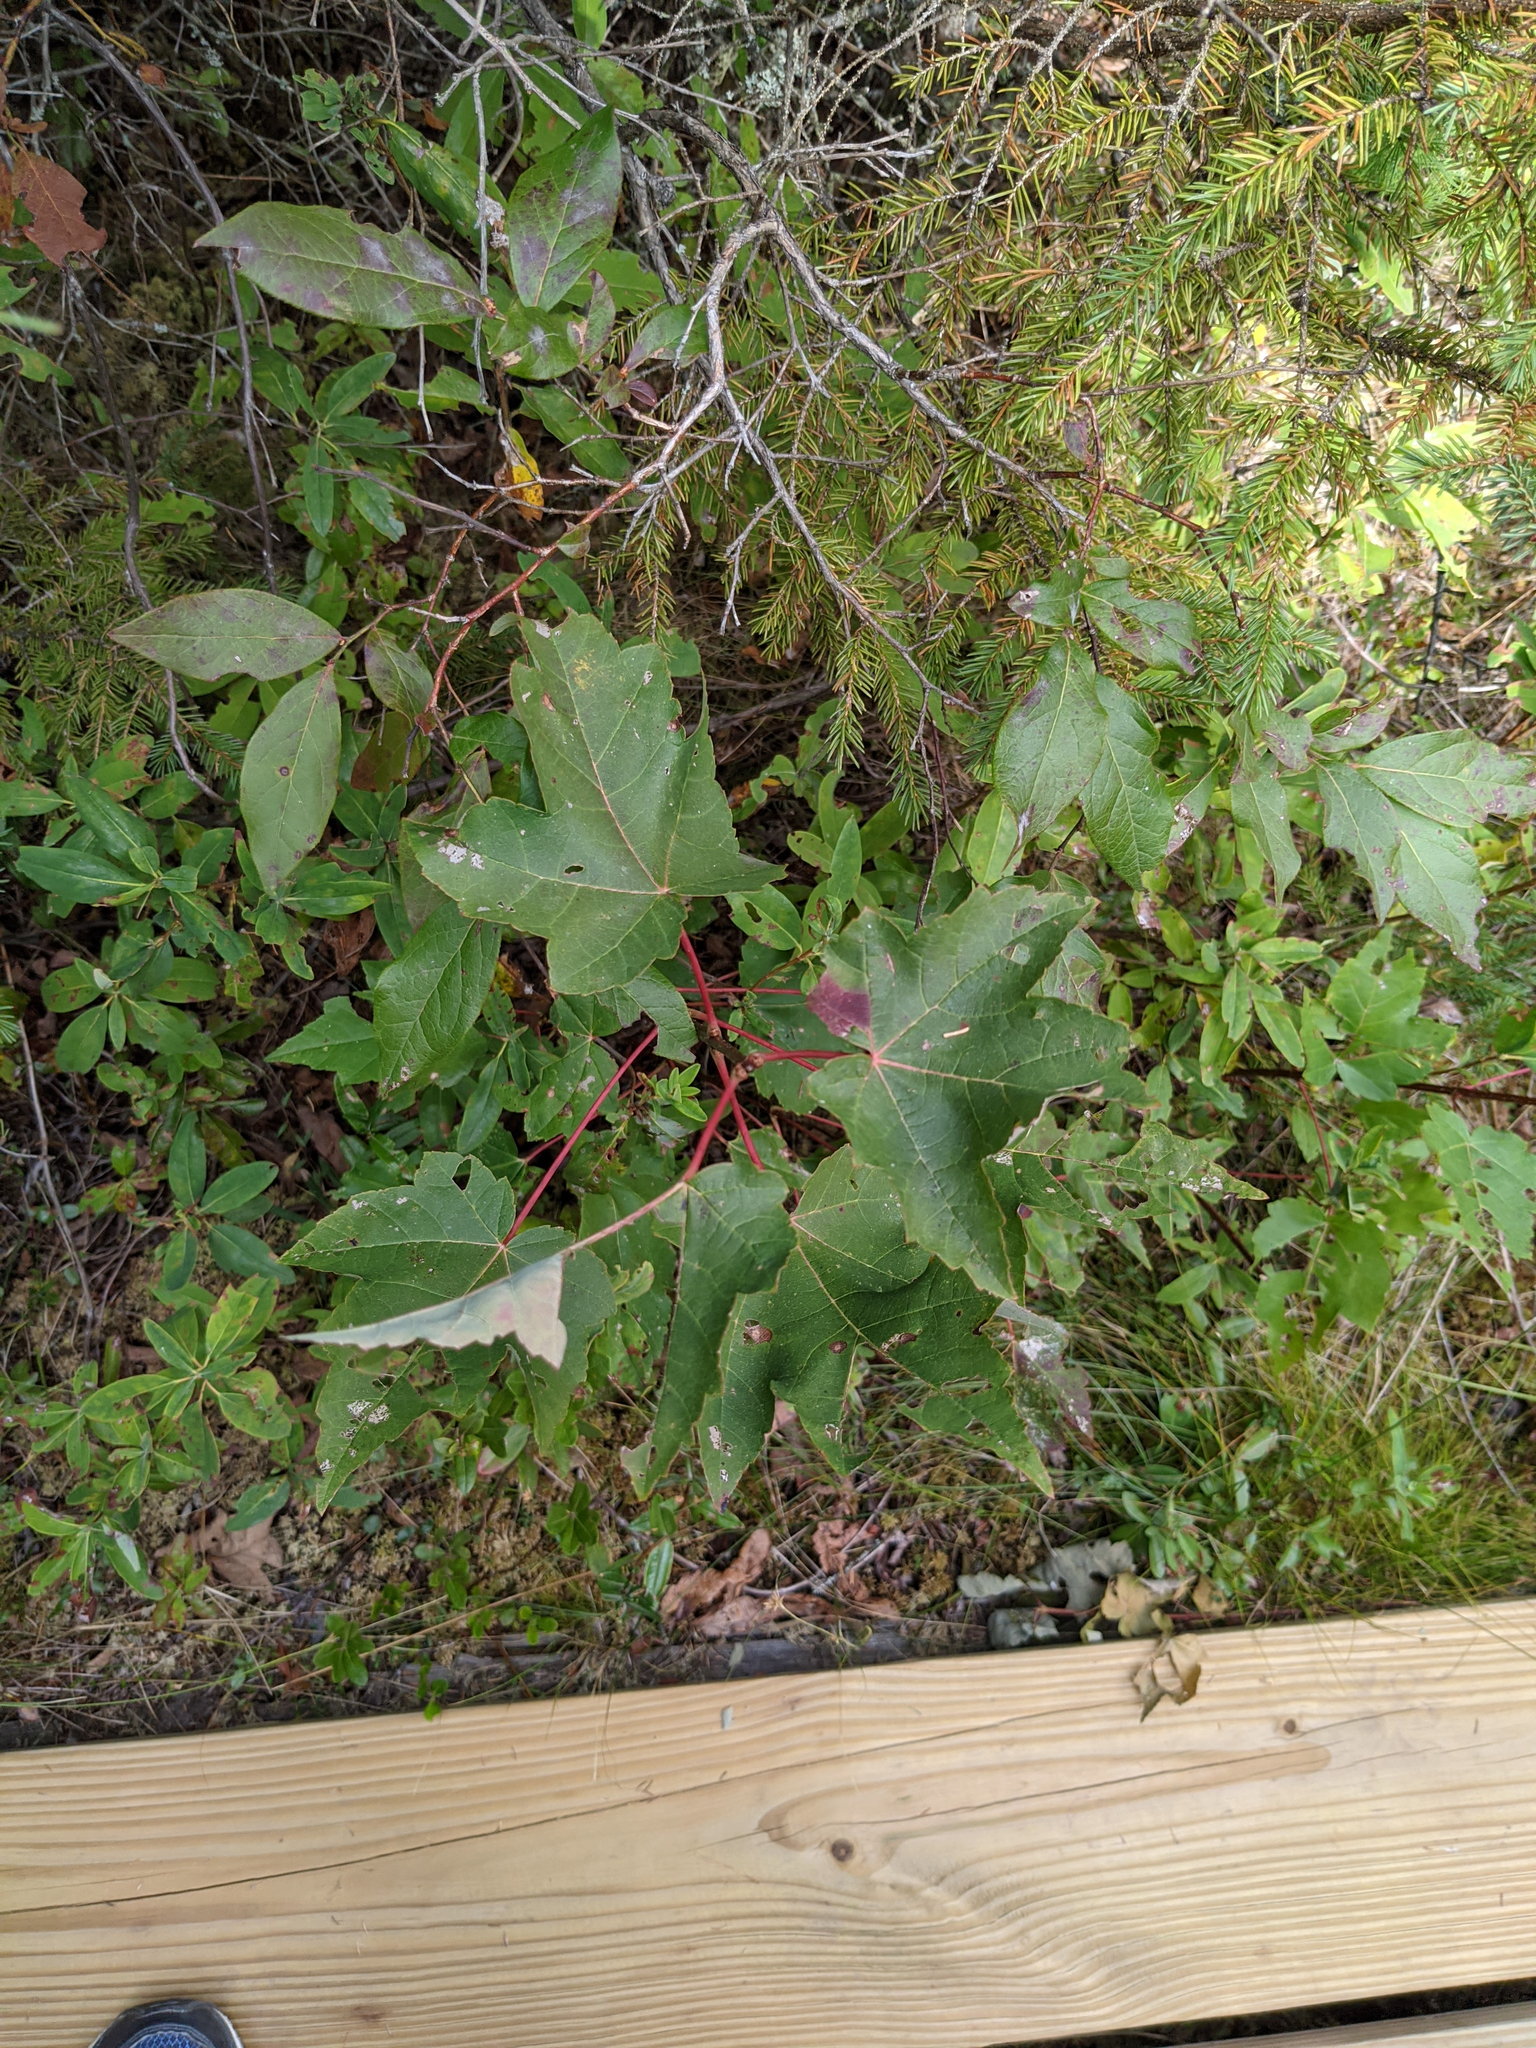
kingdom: Plantae
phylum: Tracheophyta
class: Magnoliopsida
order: Sapindales
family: Sapindaceae
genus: Acer
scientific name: Acer rubrum
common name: Red maple
